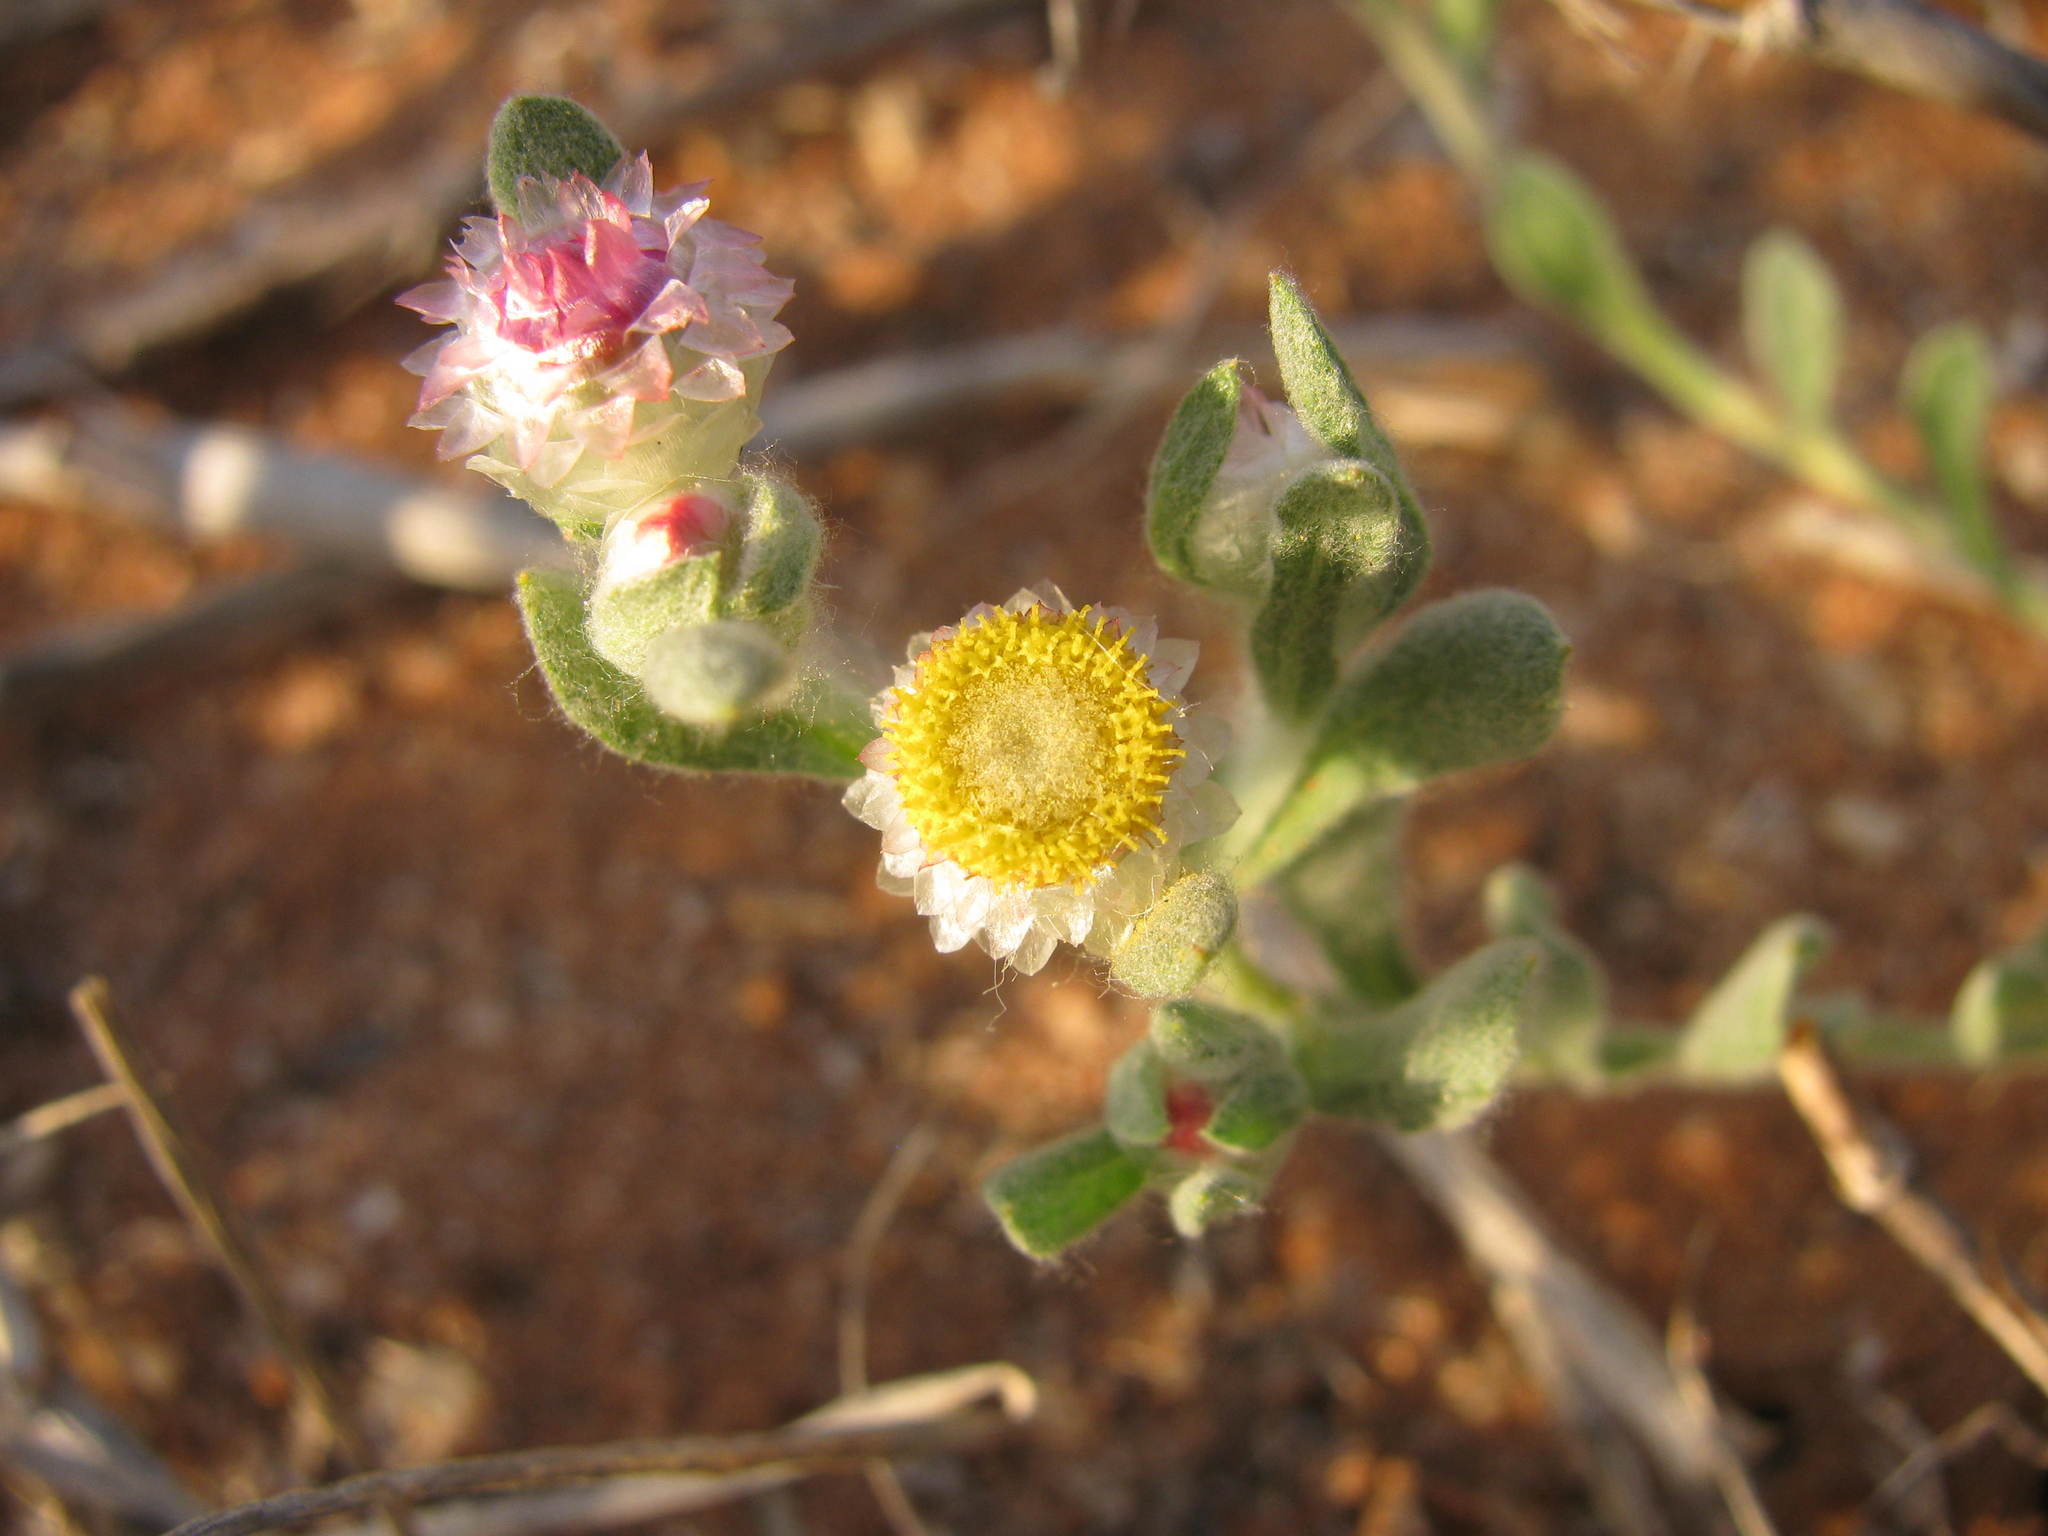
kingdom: Plantae
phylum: Tracheophyta
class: Magnoliopsida
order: Asterales
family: Asteraceae
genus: Helichrysum
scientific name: Helichrysum argyrosphaerum
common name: Wild everlasting
